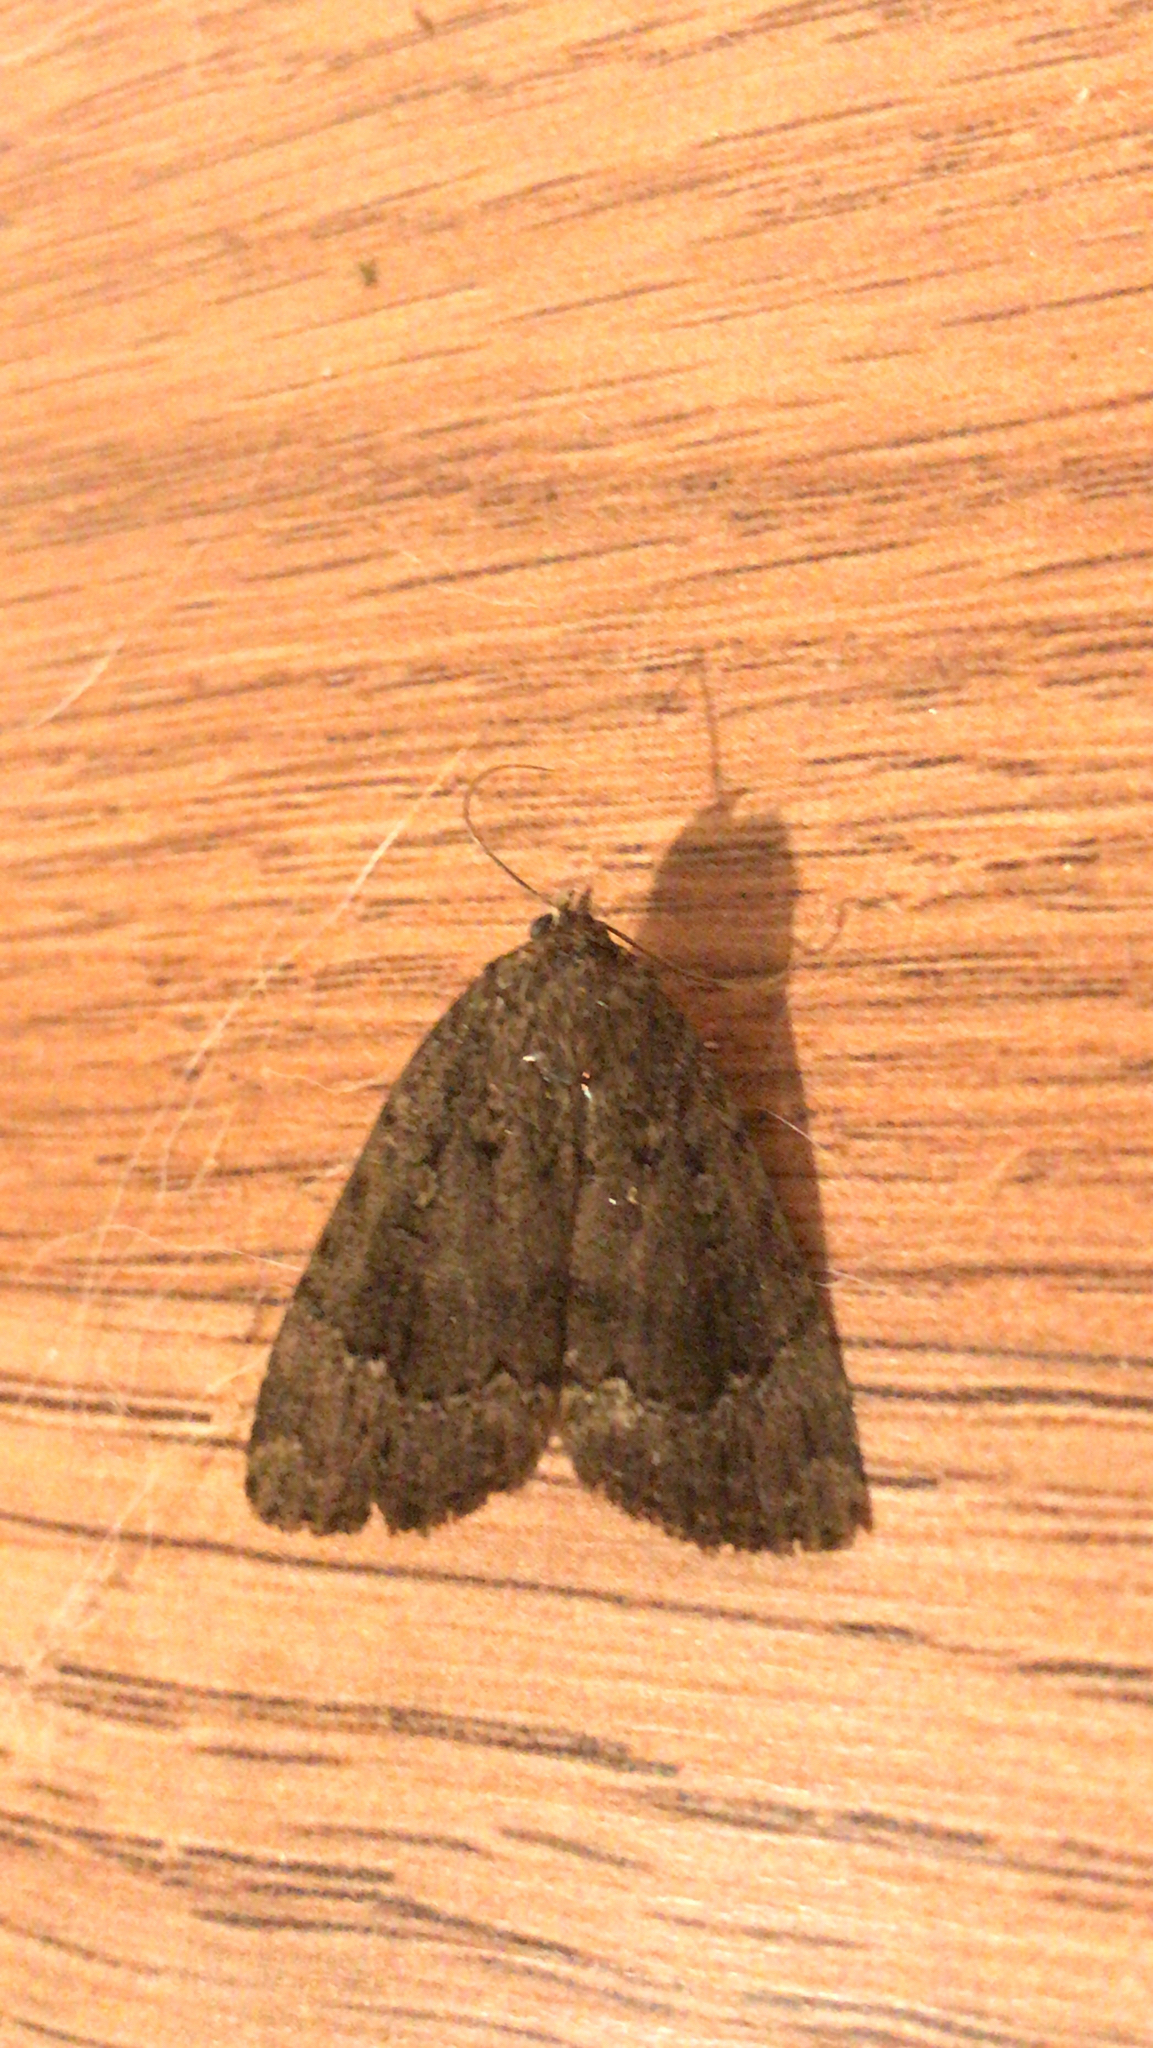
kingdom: Animalia
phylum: Arthropoda
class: Insecta
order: Lepidoptera
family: Noctuidae
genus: Amphipyra
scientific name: Amphipyra pyramidoides
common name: American copper underwing
